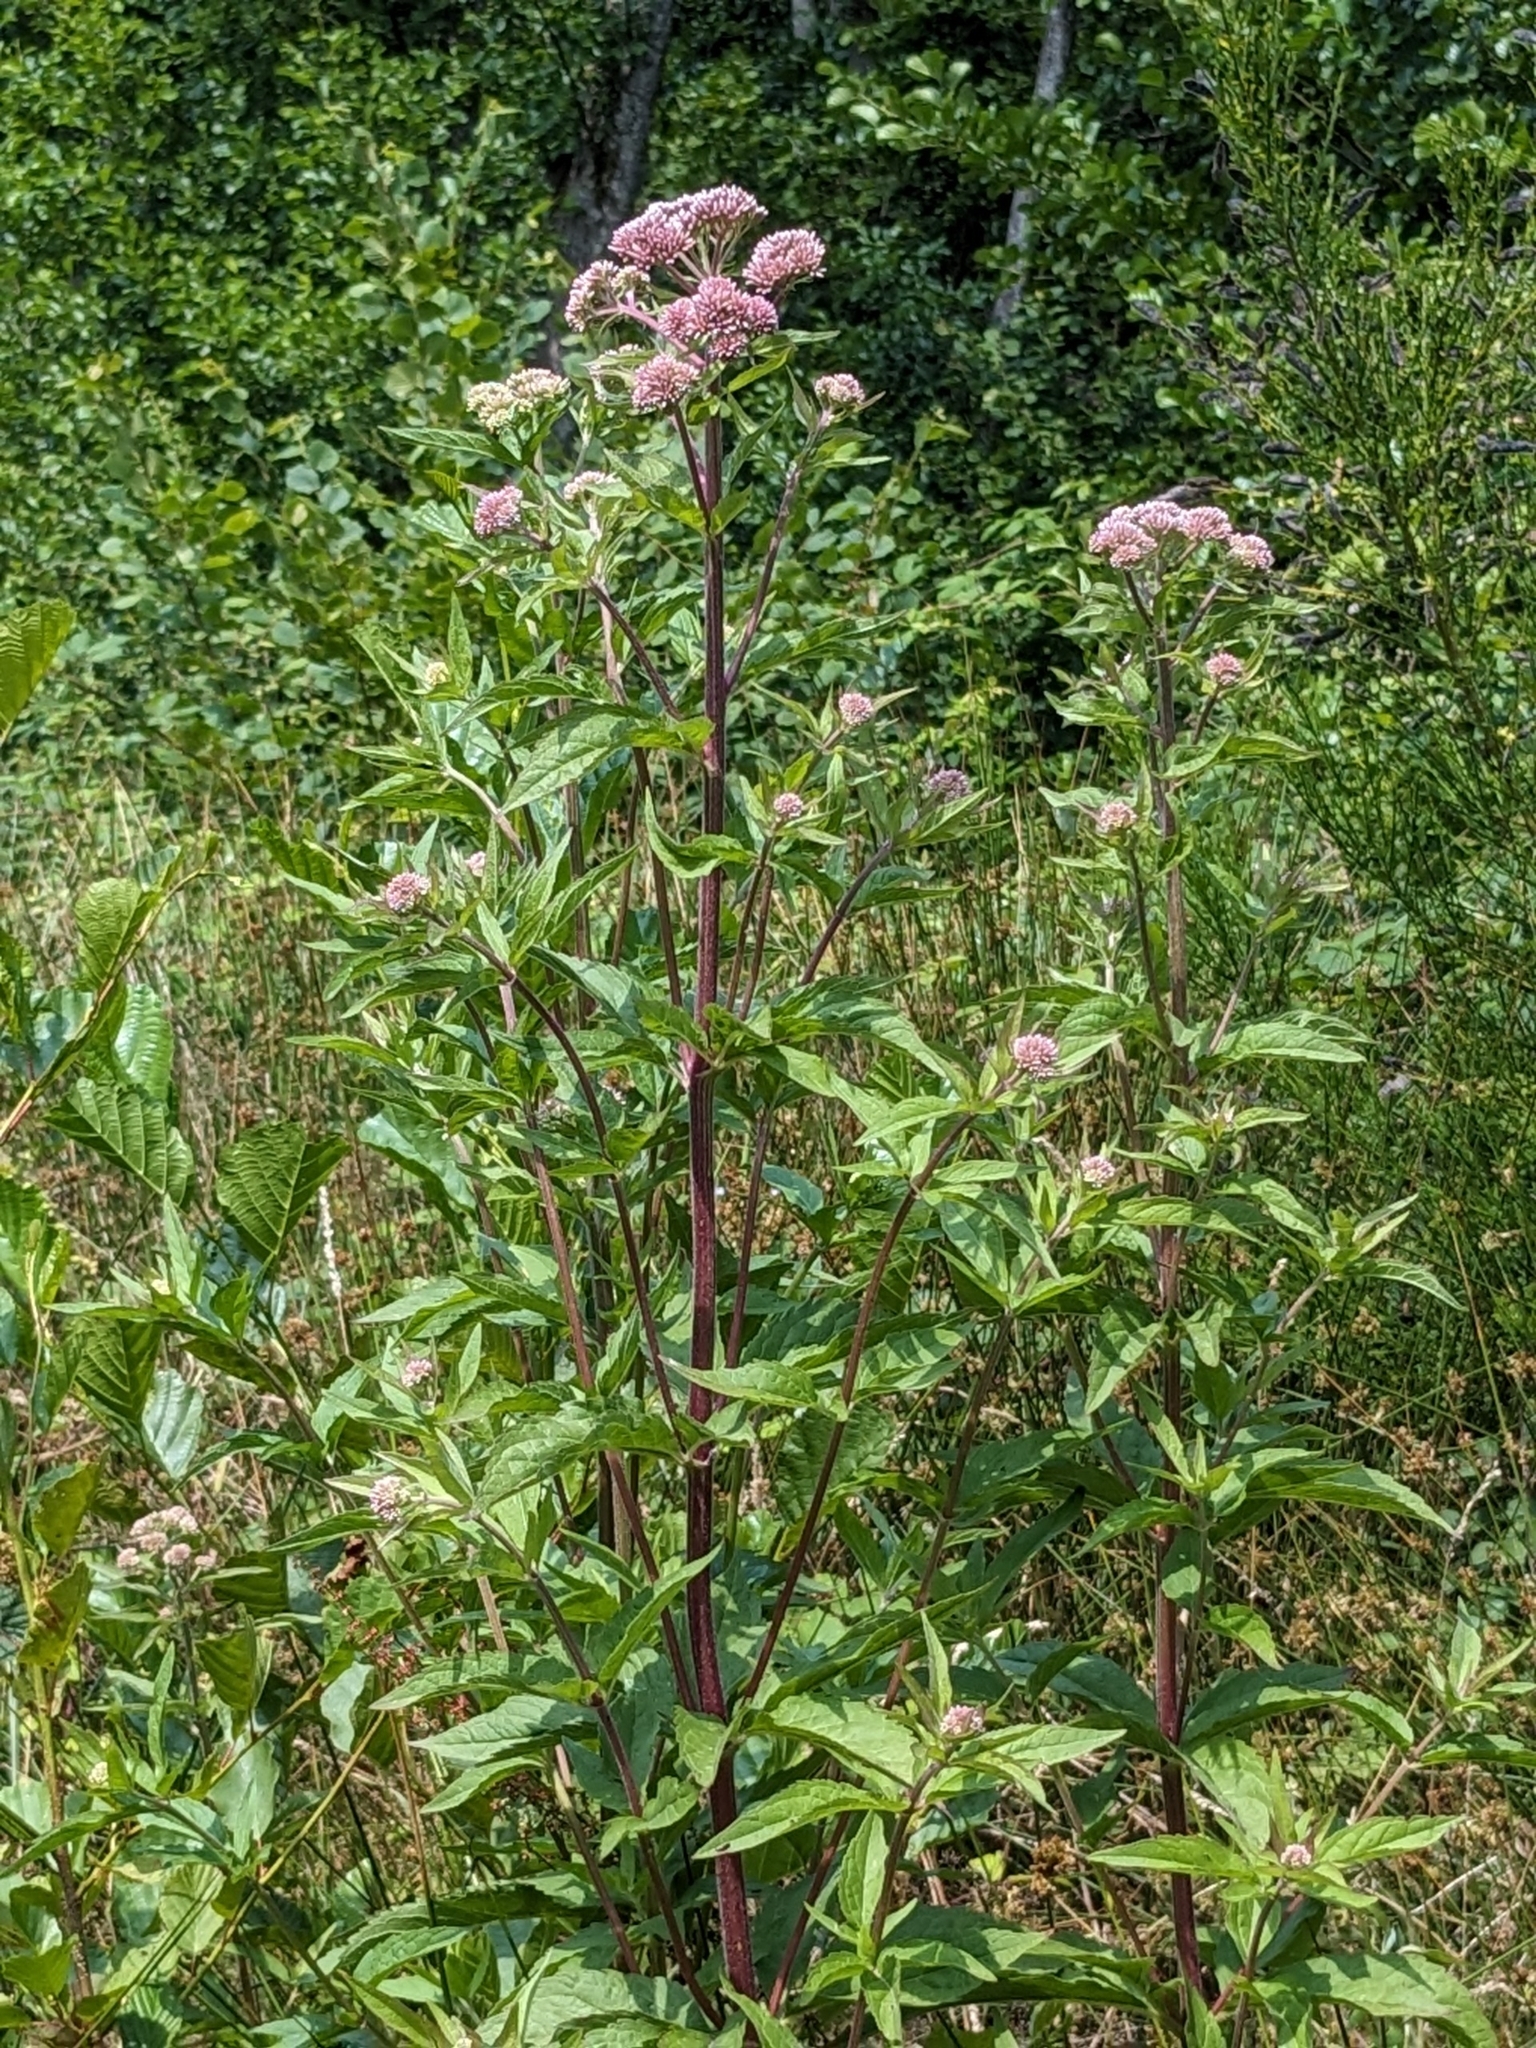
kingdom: Plantae
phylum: Tracheophyta
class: Magnoliopsida
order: Asterales
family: Asteraceae
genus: Eupatorium
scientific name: Eupatorium cannabinum
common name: Hemp-agrimony
